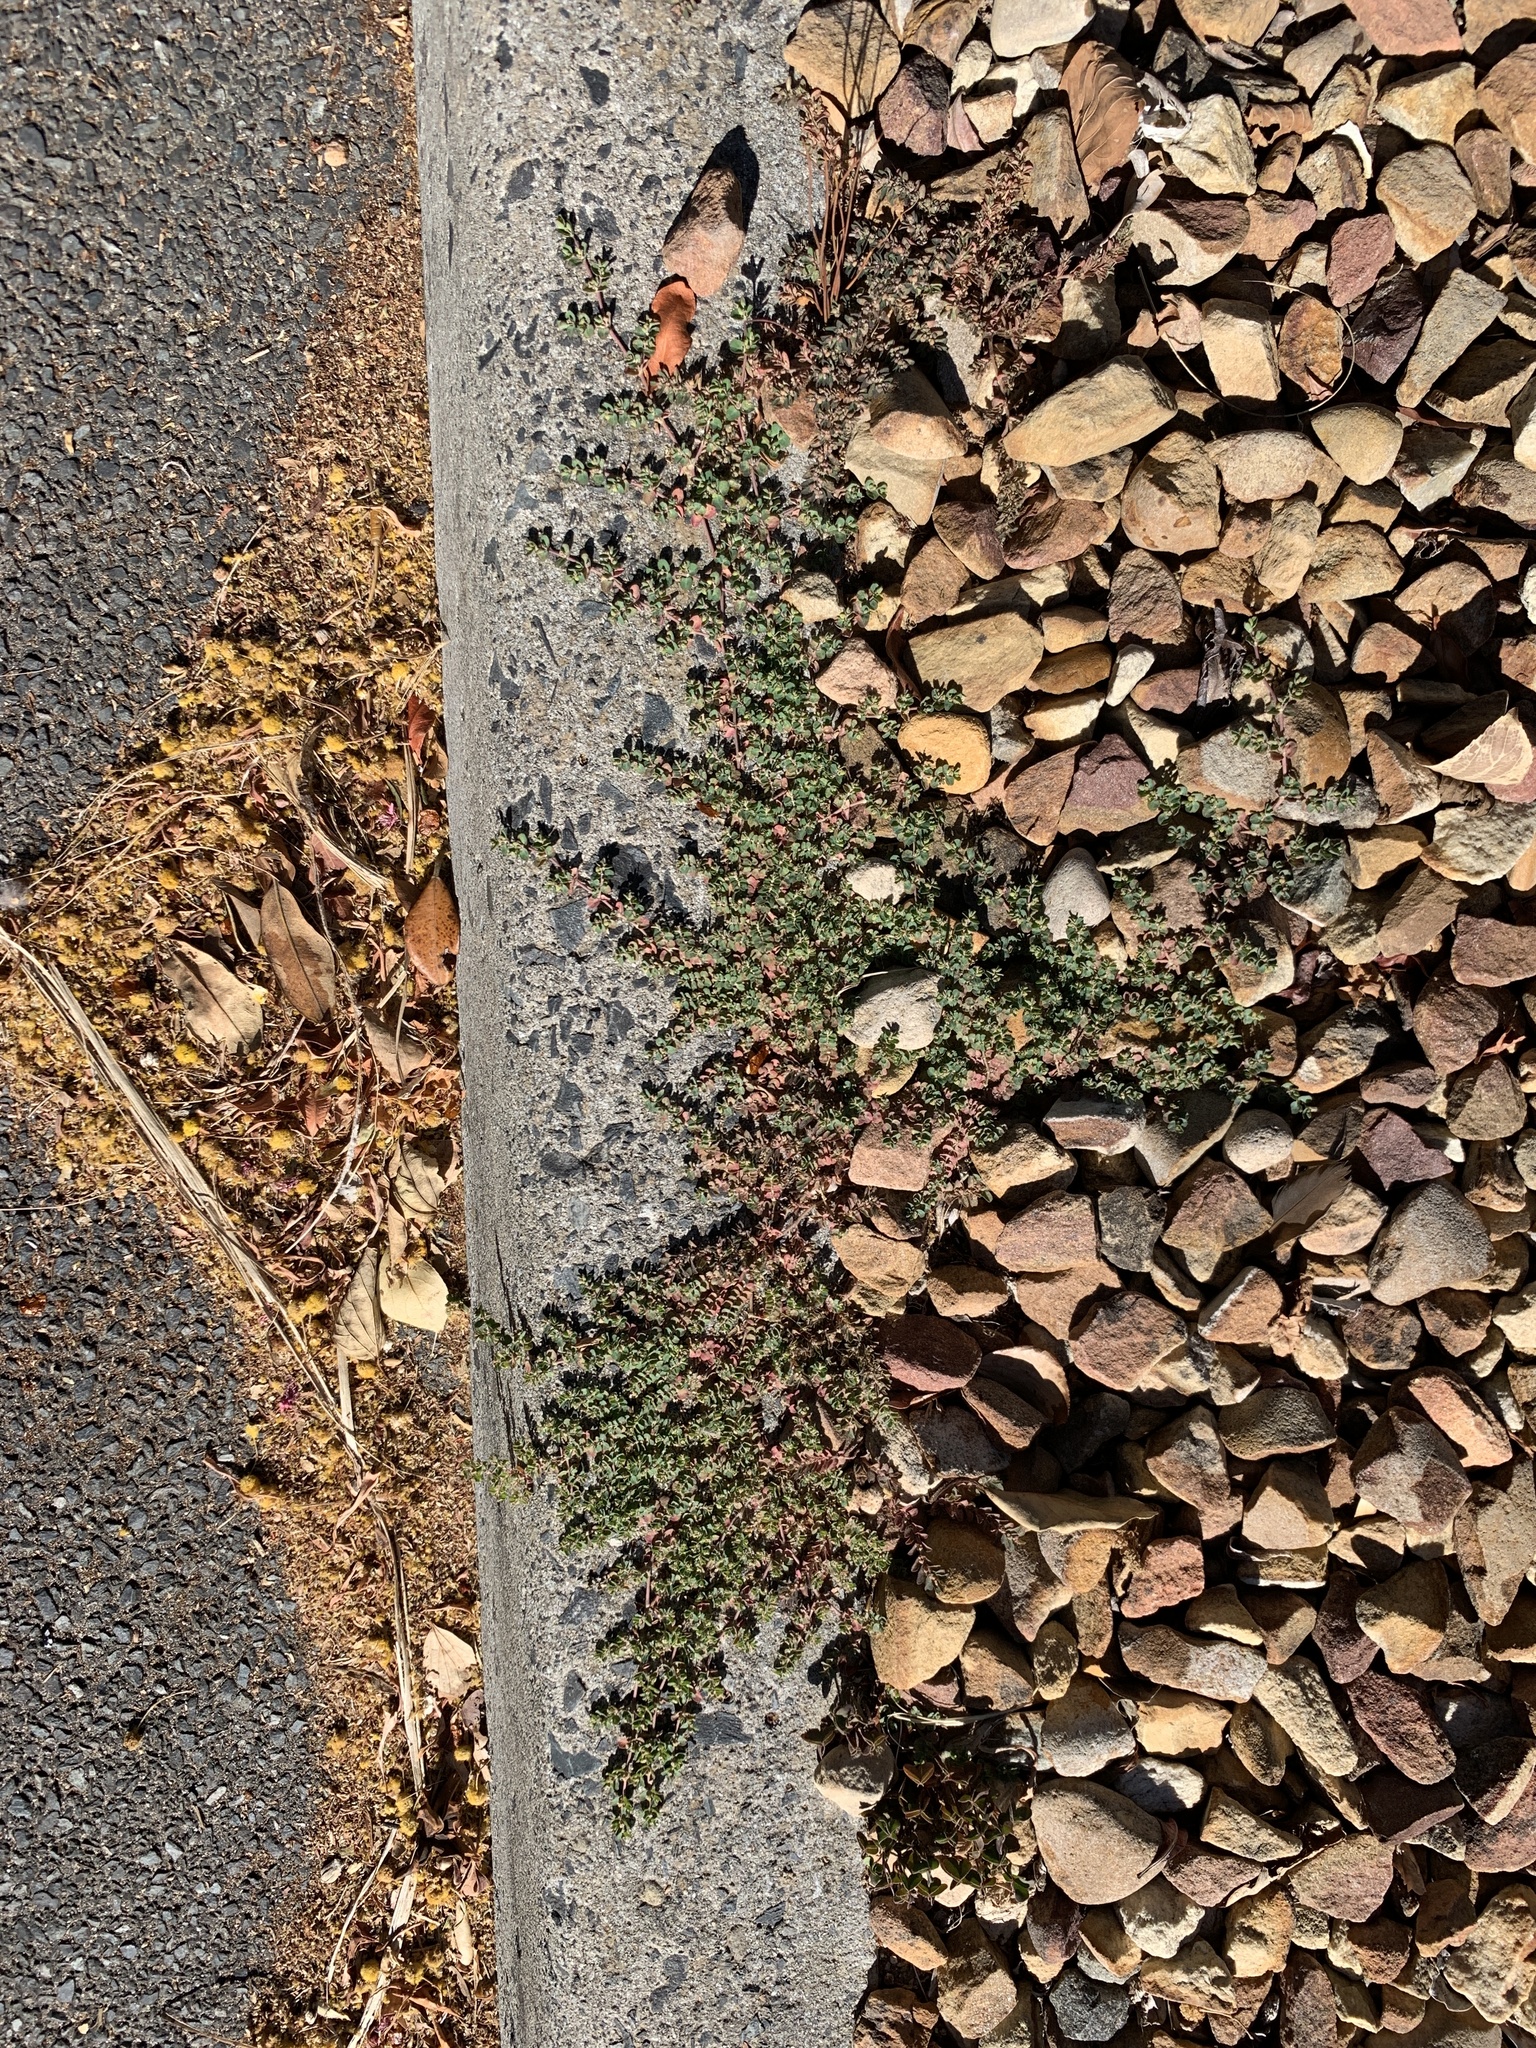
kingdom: Plantae
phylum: Tracheophyta
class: Magnoliopsida
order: Malpighiales
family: Euphorbiaceae
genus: Euphorbia
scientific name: Euphorbia serpens
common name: Matted sandmat
